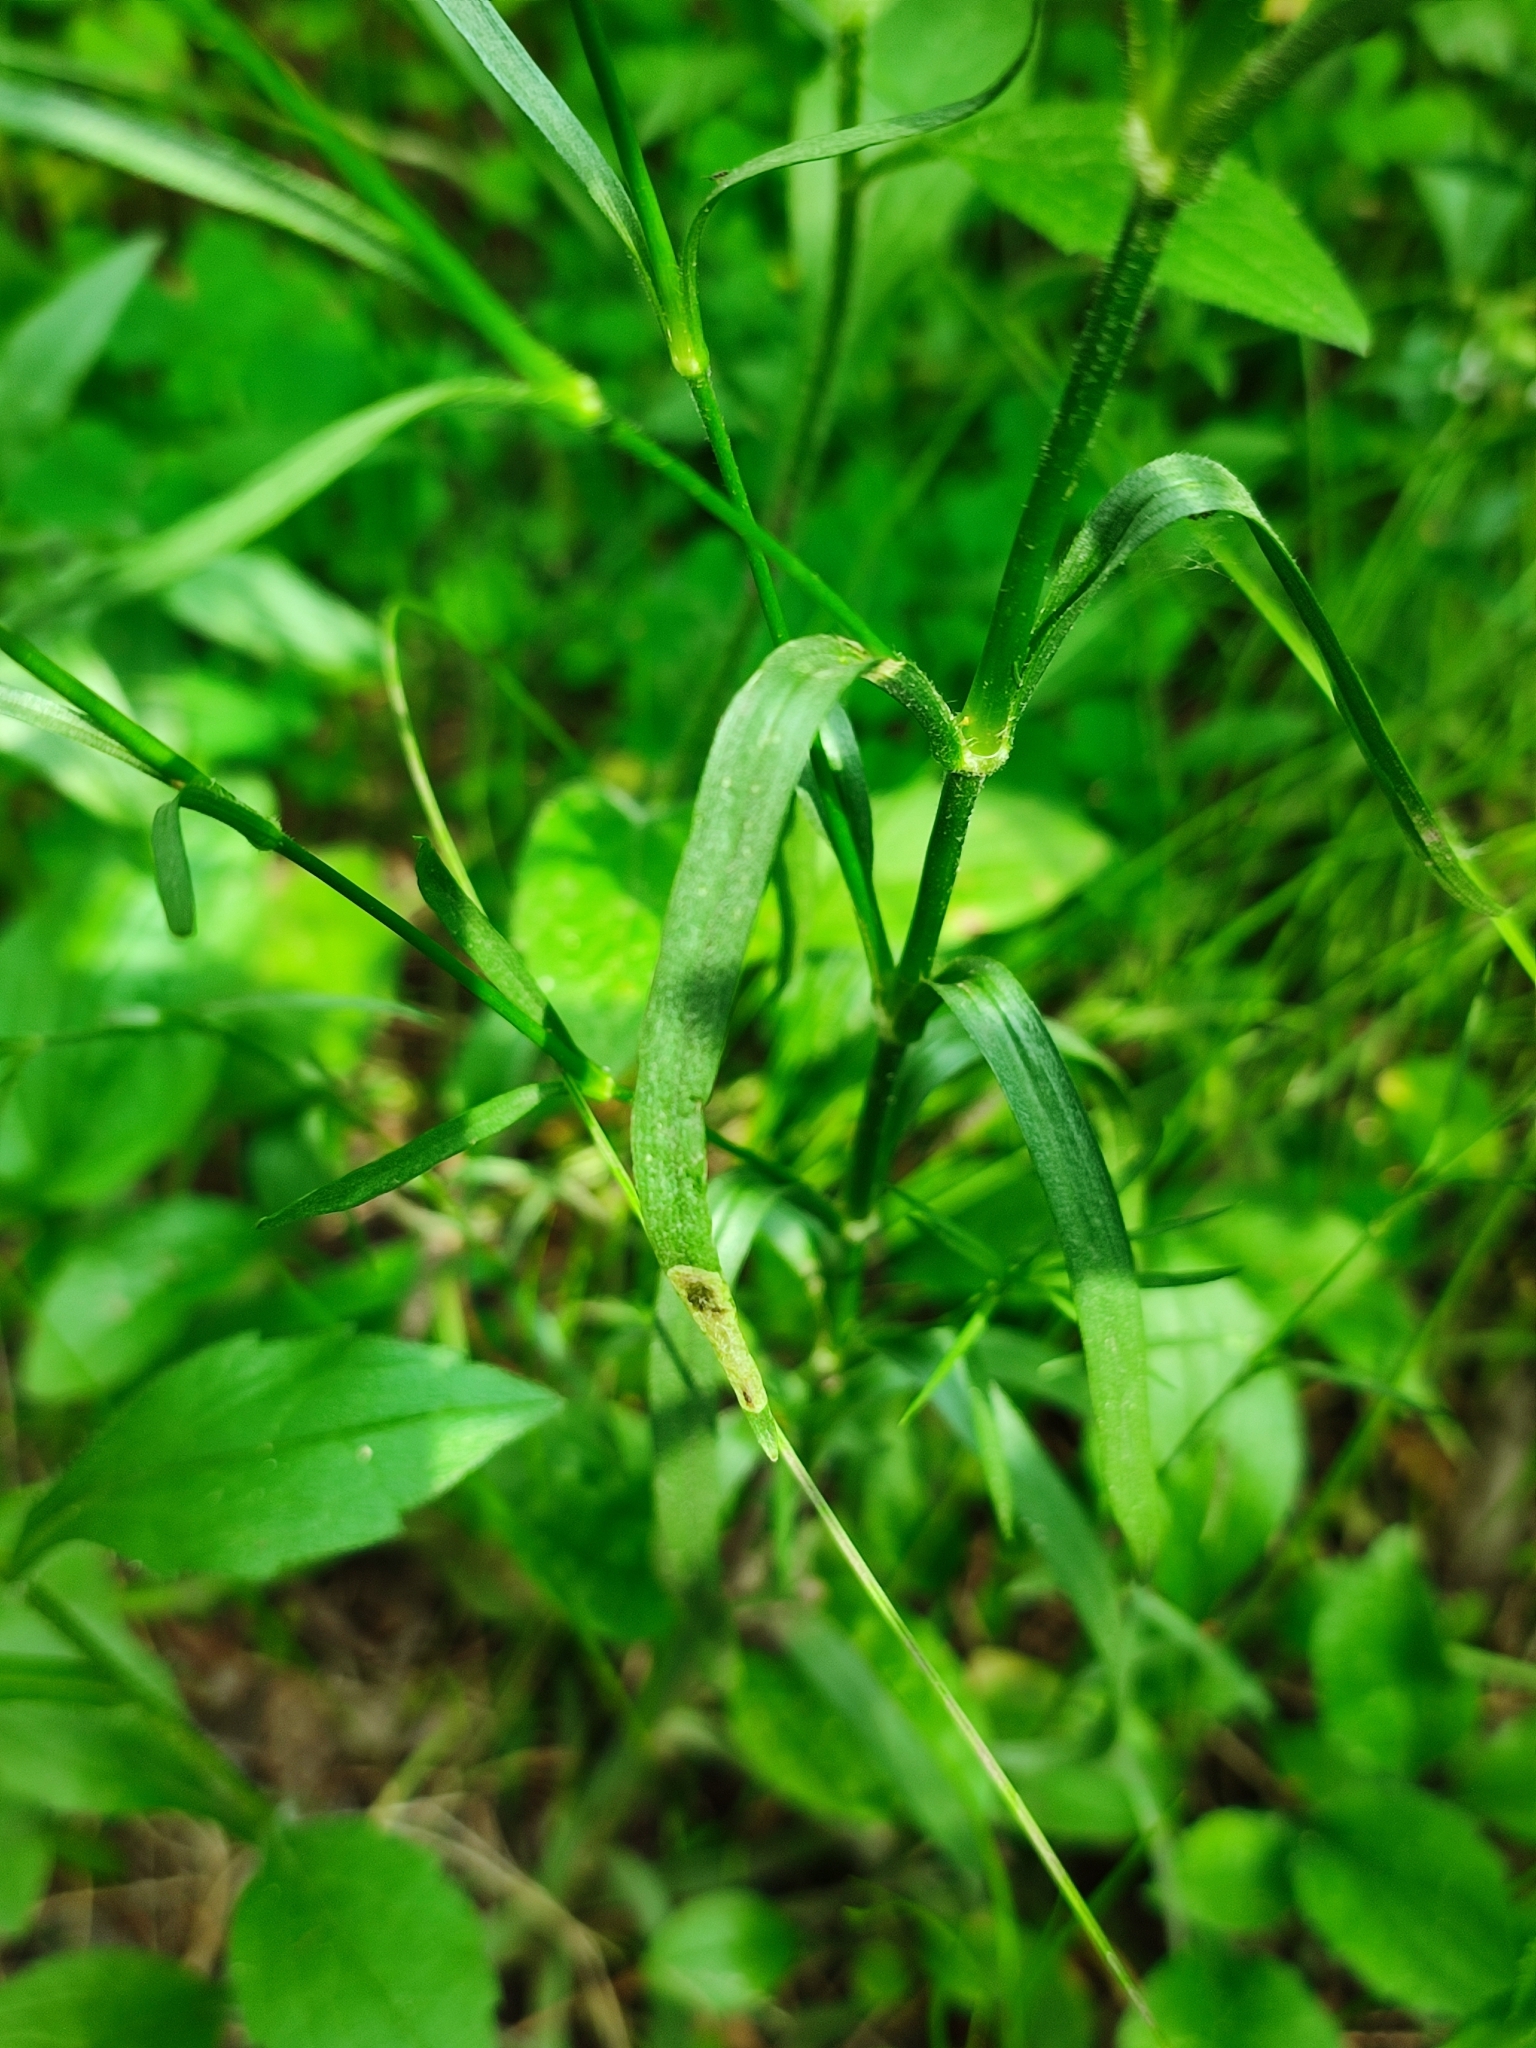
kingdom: Plantae
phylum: Tracheophyta
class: Magnoliopsida
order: Caryophyllales
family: Caryophyllaceae
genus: Dianthus
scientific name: Dianthus armeria
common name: Deptford pink
